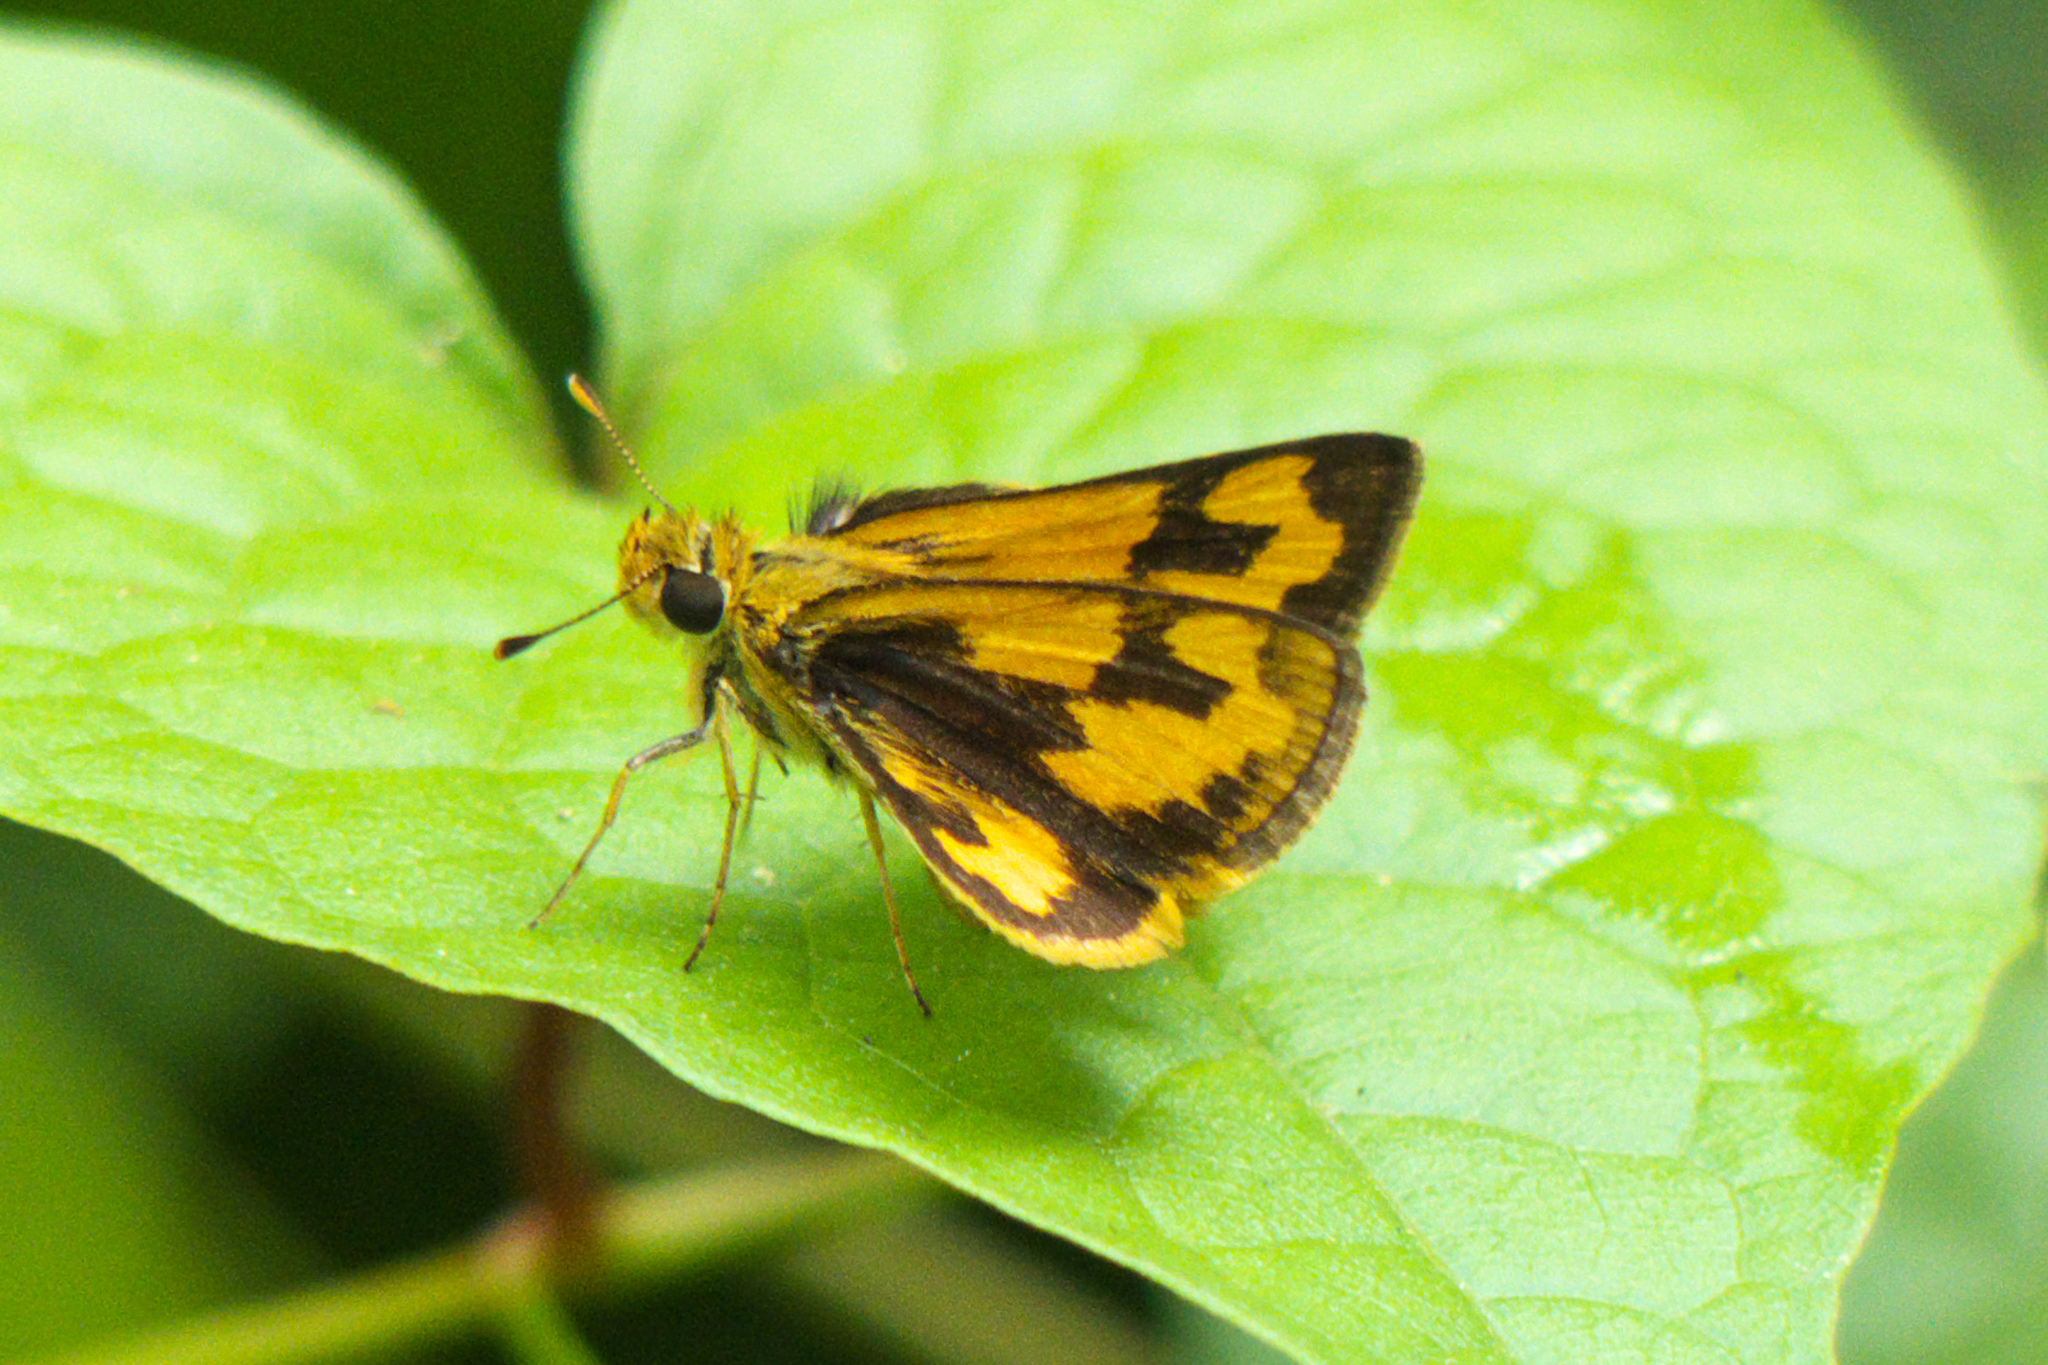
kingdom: Animalia
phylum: Arthropoda
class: Insecta
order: Lepidoptera
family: Hesperiidae
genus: Taractrocera
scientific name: Taractrocera archias
